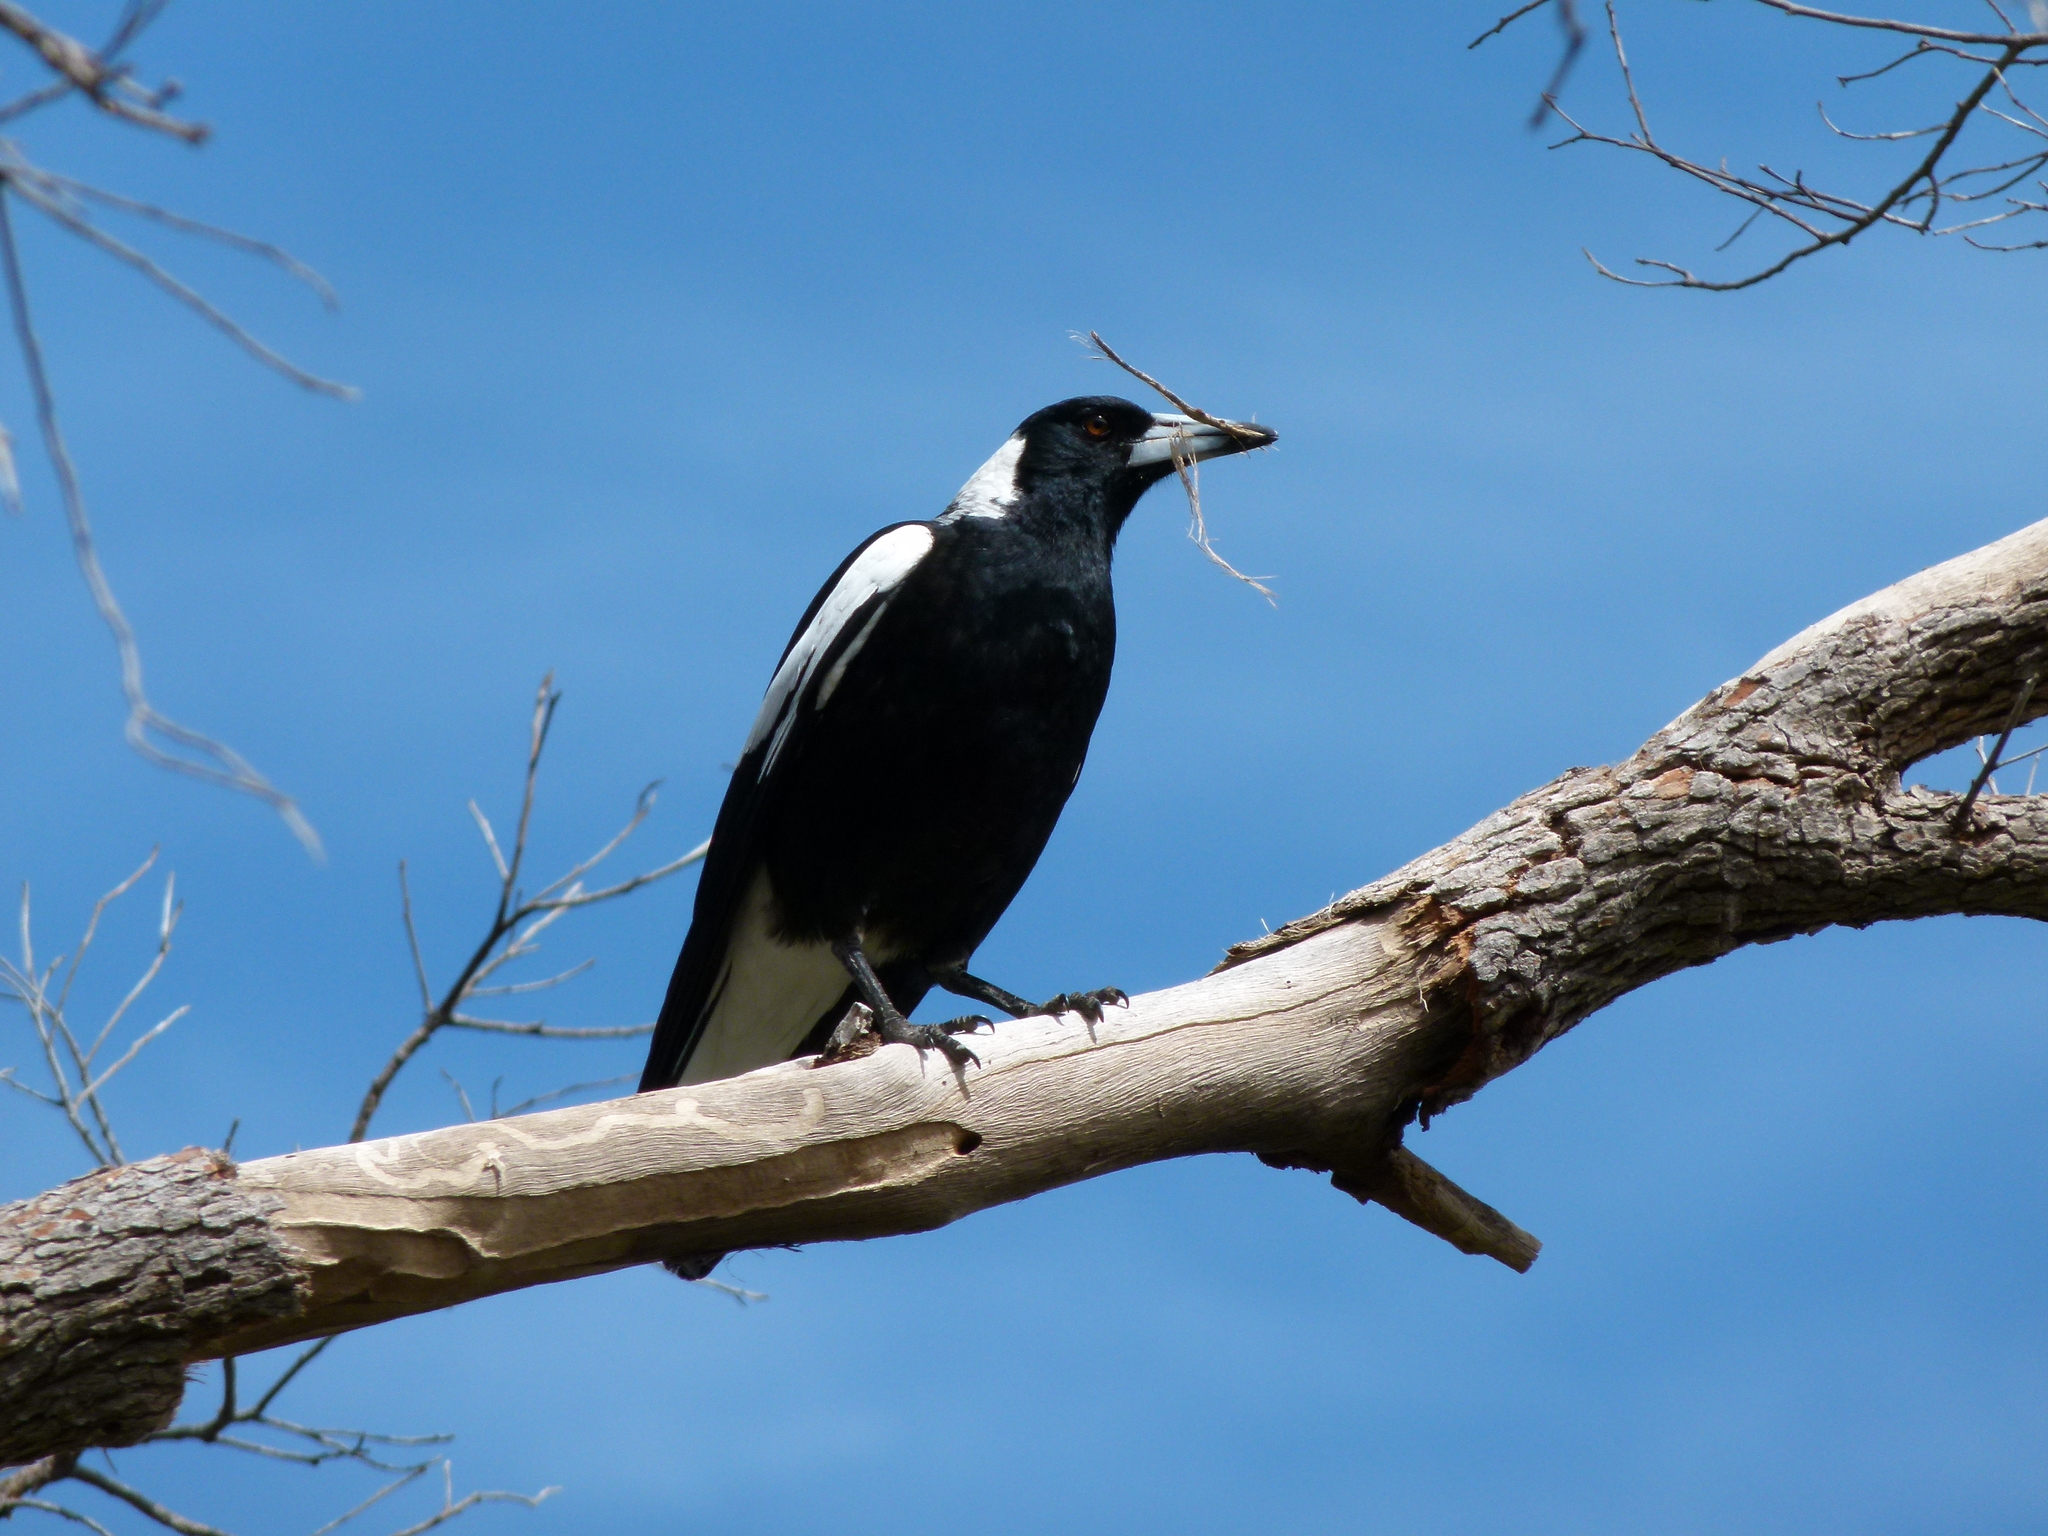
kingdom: Animalia
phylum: Chordata
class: Aves
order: Passeriformes
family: Cracticidae
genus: Gymnorhina
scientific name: Gymnorhina tibicen
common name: Australian magpie
